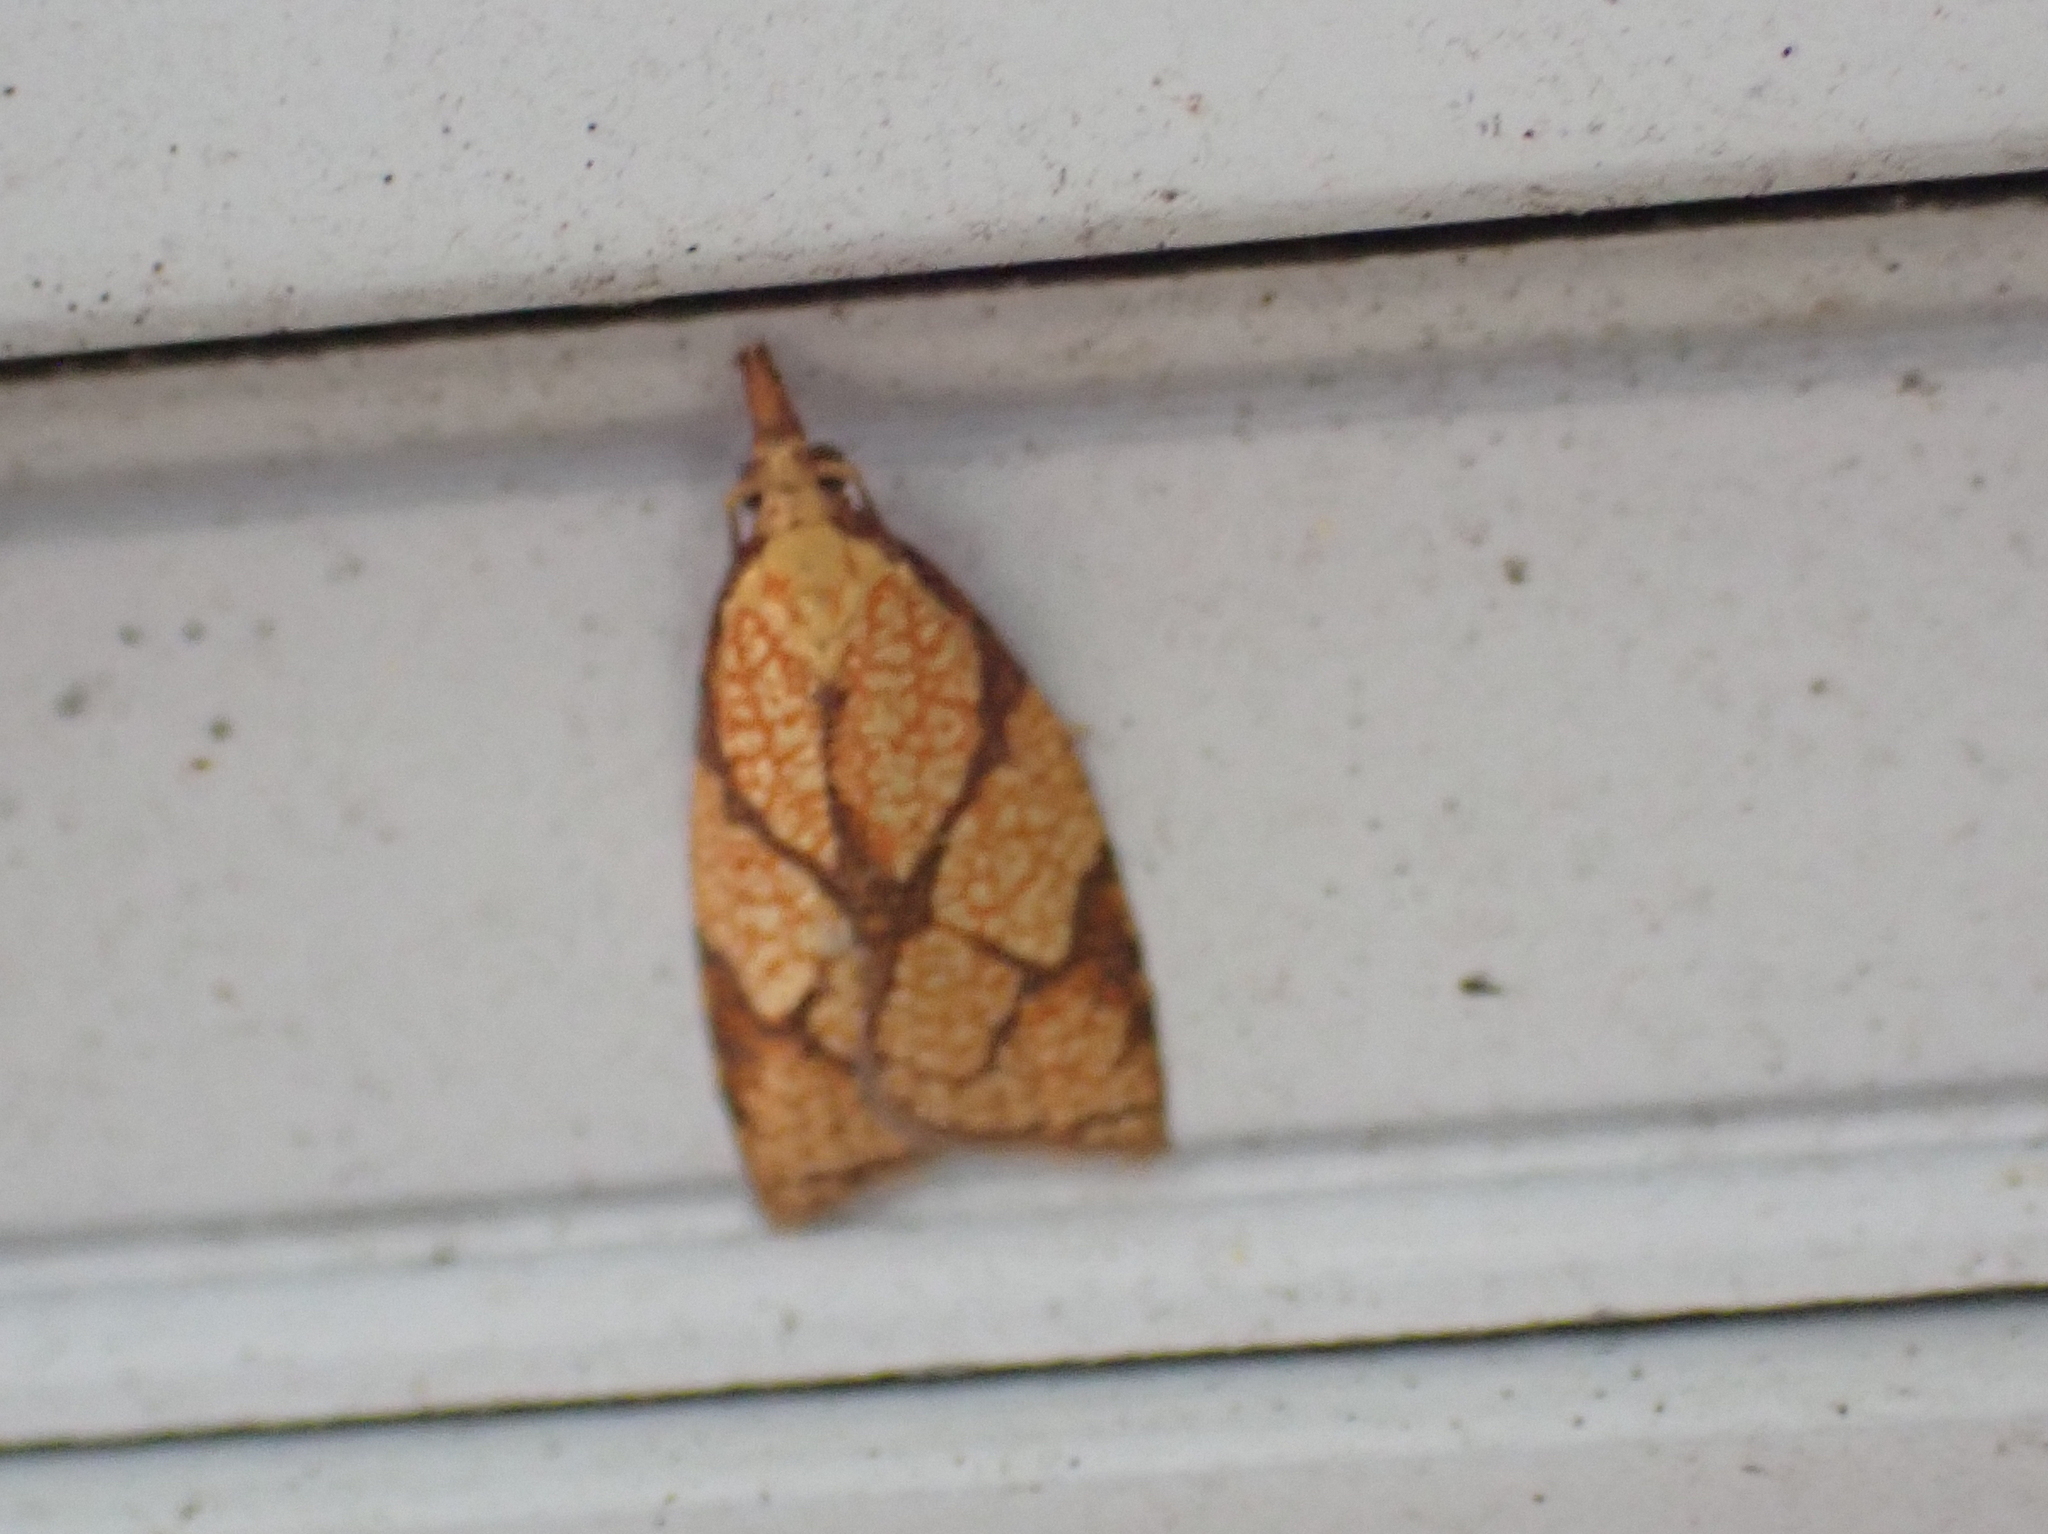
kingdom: Animalia
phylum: Arthropoda
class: Insecta
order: Lepidoptera
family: Tortricidae
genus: Cenopis
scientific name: Cenopis reticulatana
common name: Reticulated fruitworm moth
